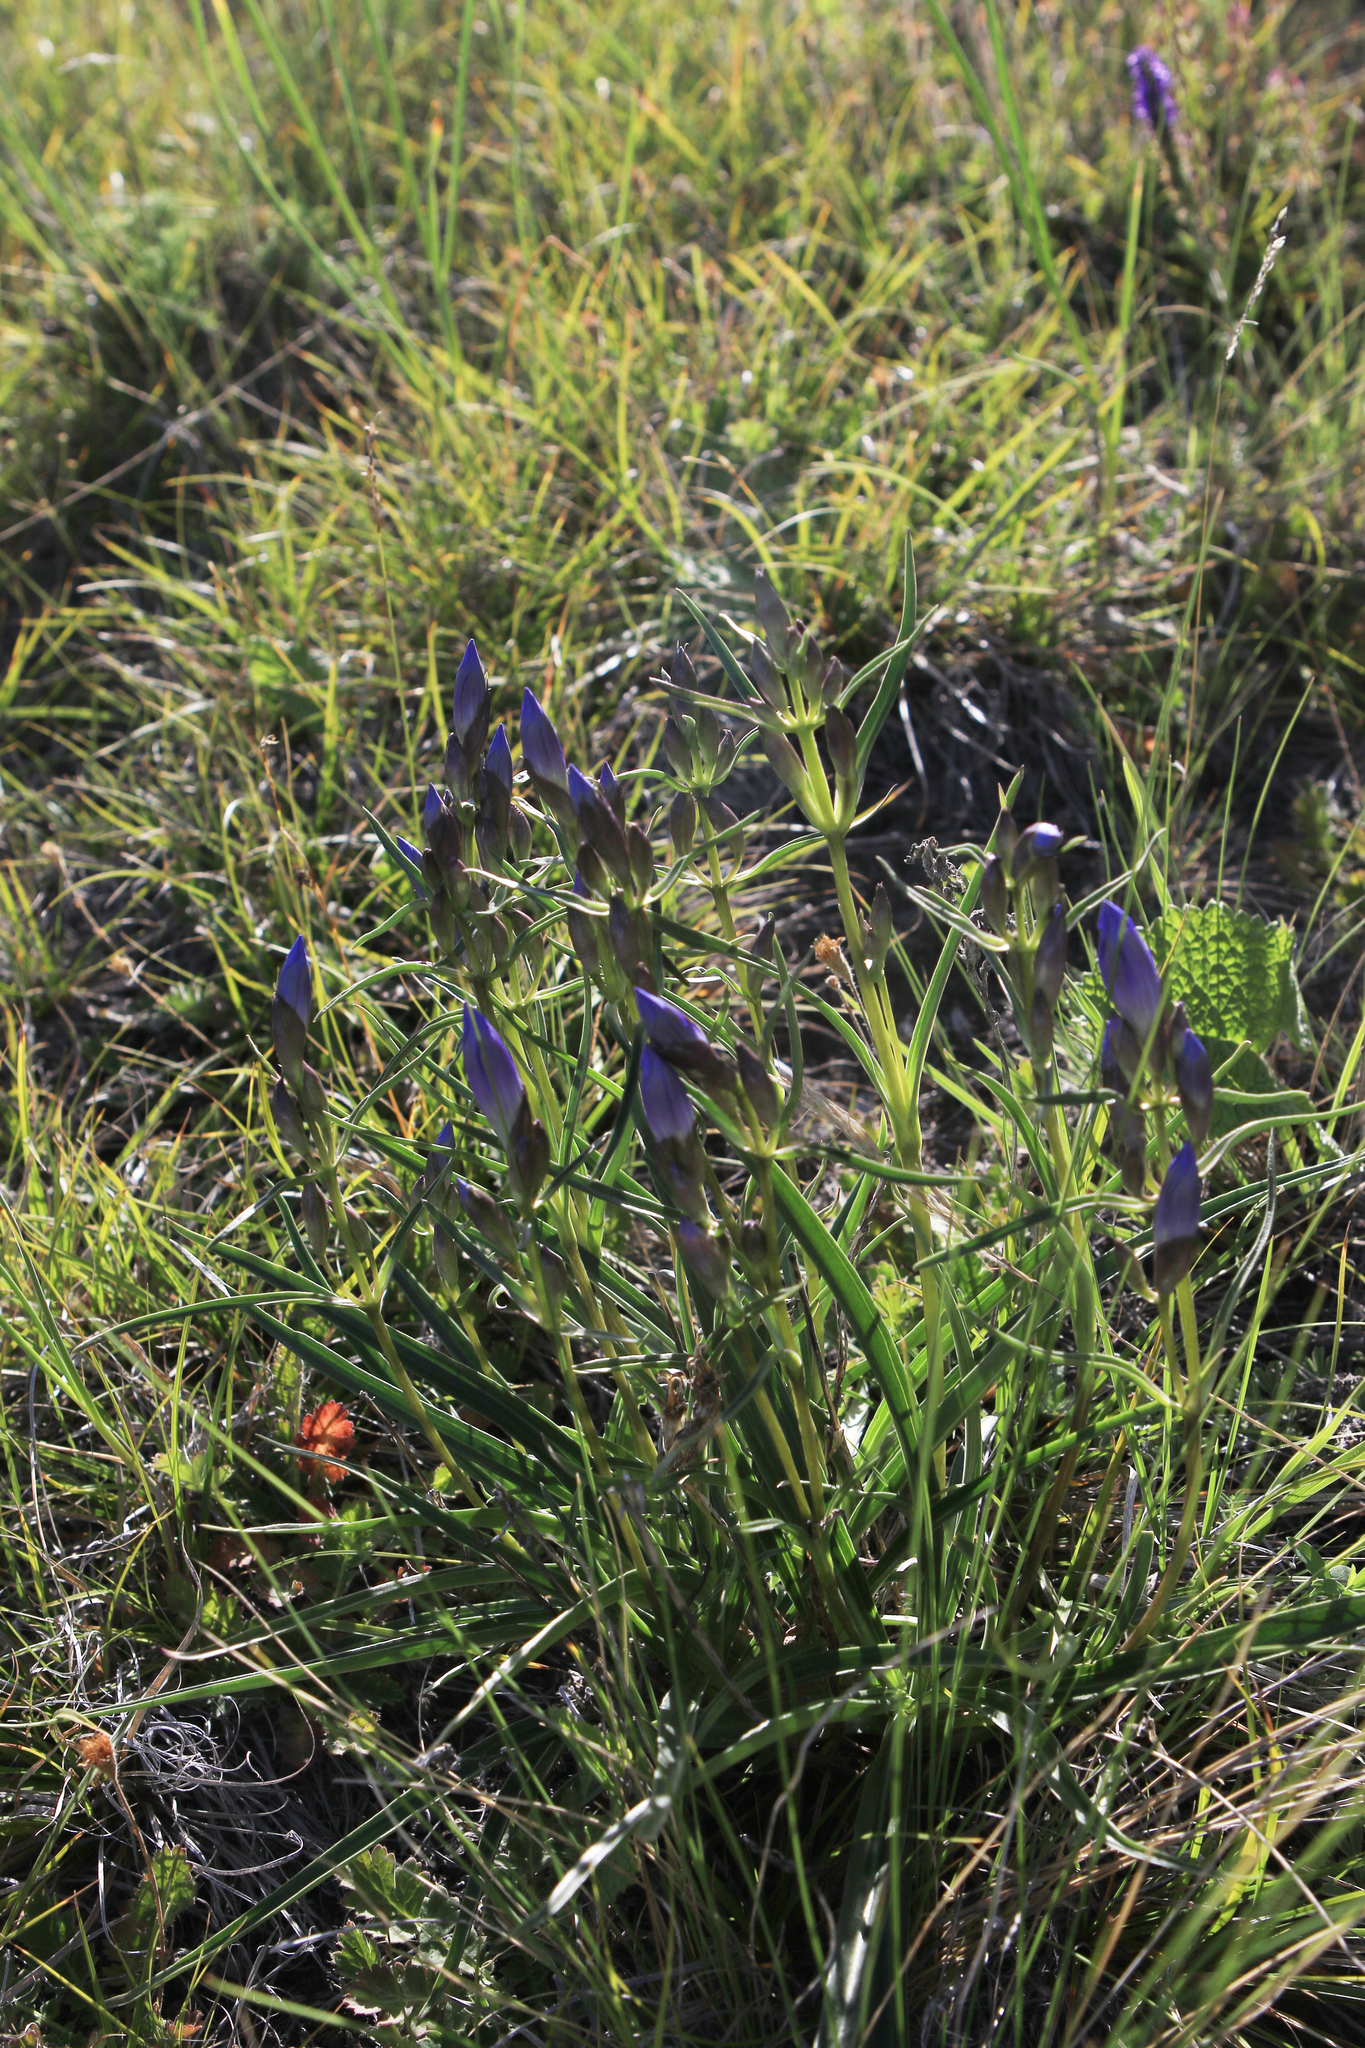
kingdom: Plantae
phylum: Tracheophyta
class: Magnoliopsida
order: Gentianales
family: Gentianaceae
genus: Gentiana
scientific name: Gentiana decumbens
